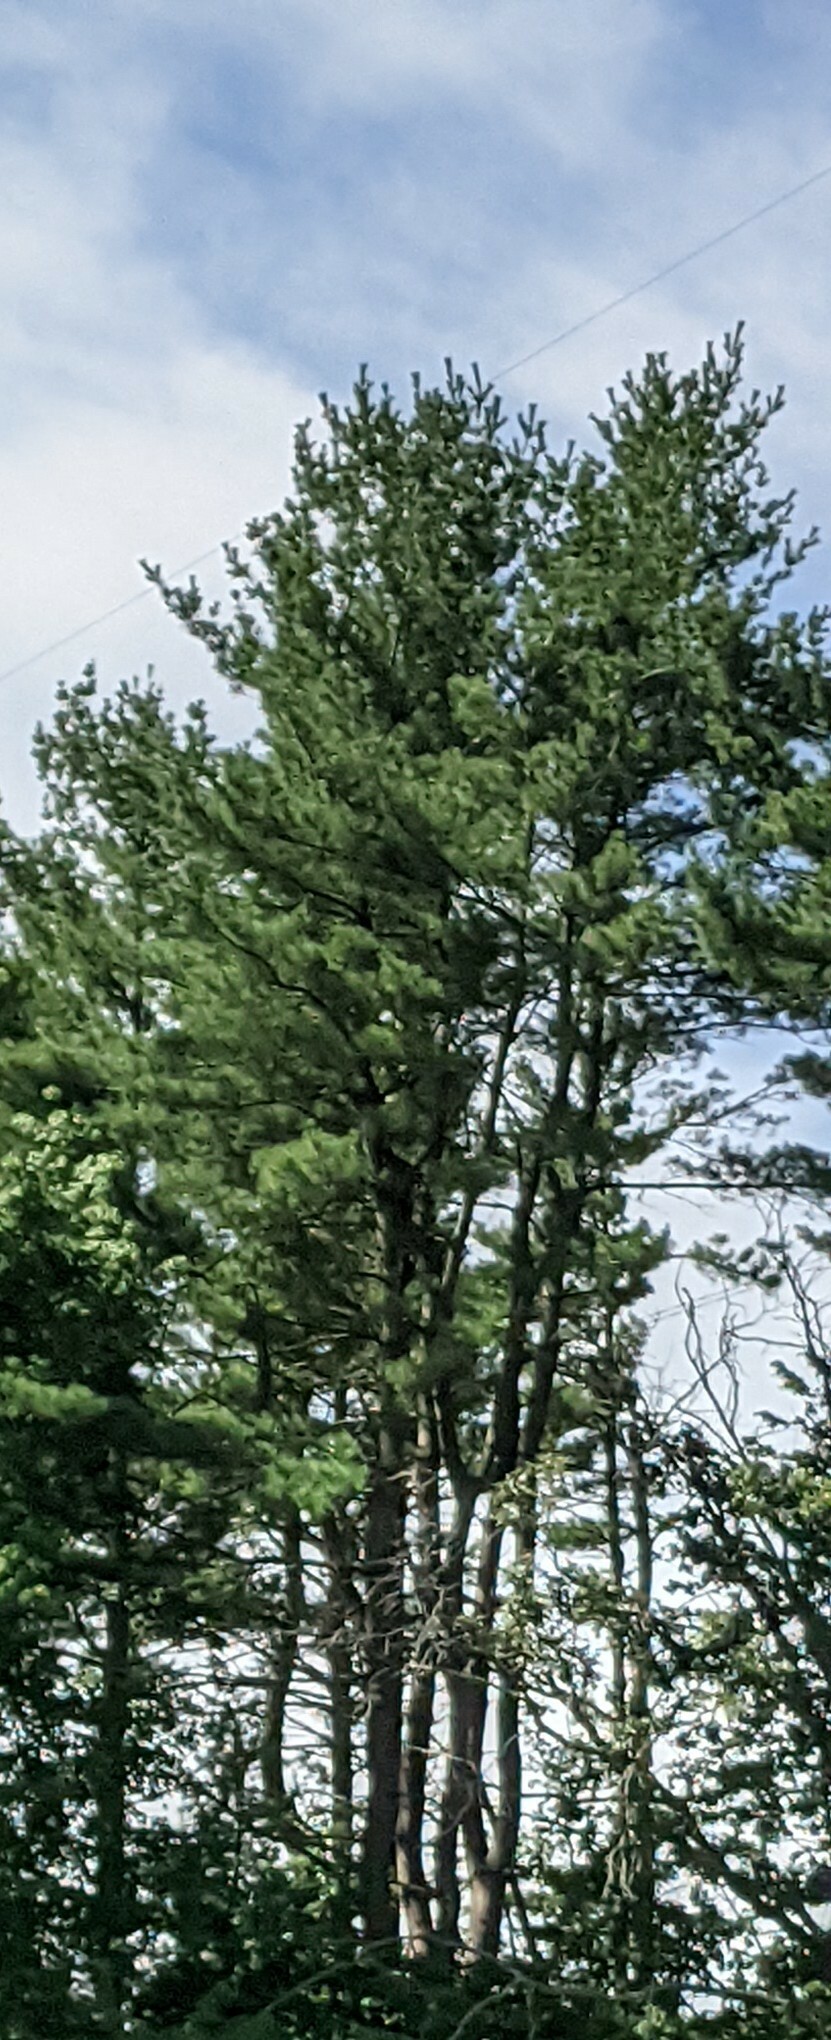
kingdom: Plantae
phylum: Tracheophyta
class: Pinopsida
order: Pinales
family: Pinaceae
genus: Pinus
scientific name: Pinus strobus
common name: Weymouth pine
